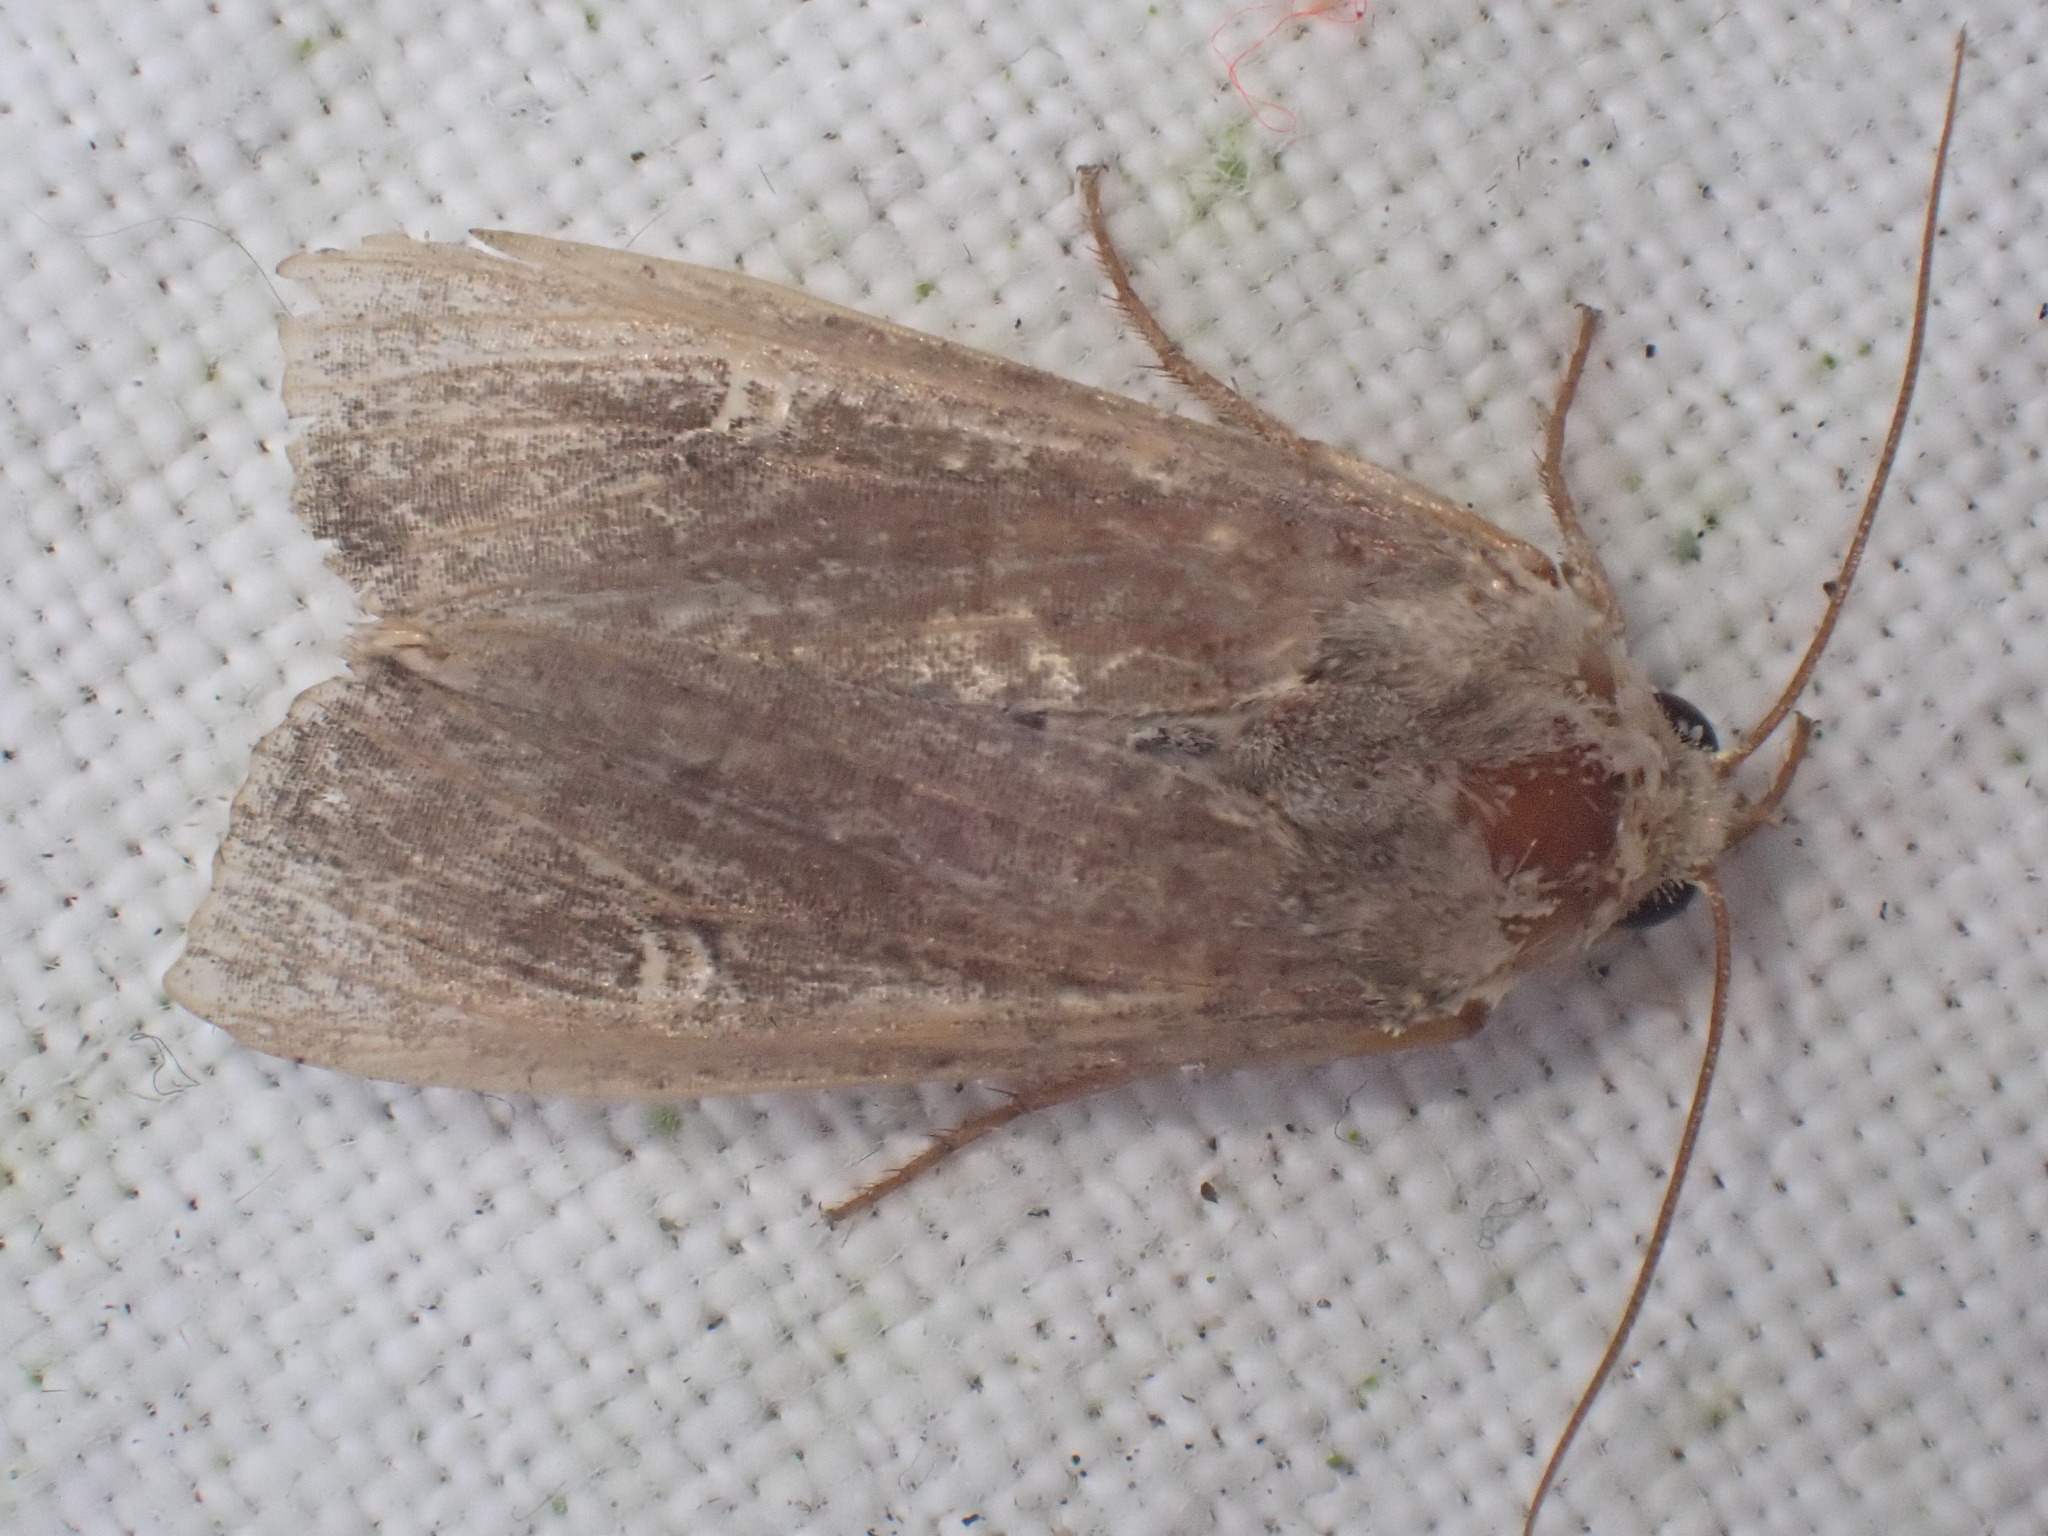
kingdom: Animalia
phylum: Arthropoda
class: Insecta
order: Lepidoptera
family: Noctuidae
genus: Helotropha
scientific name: Helotropha leucostigma
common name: The crescent
